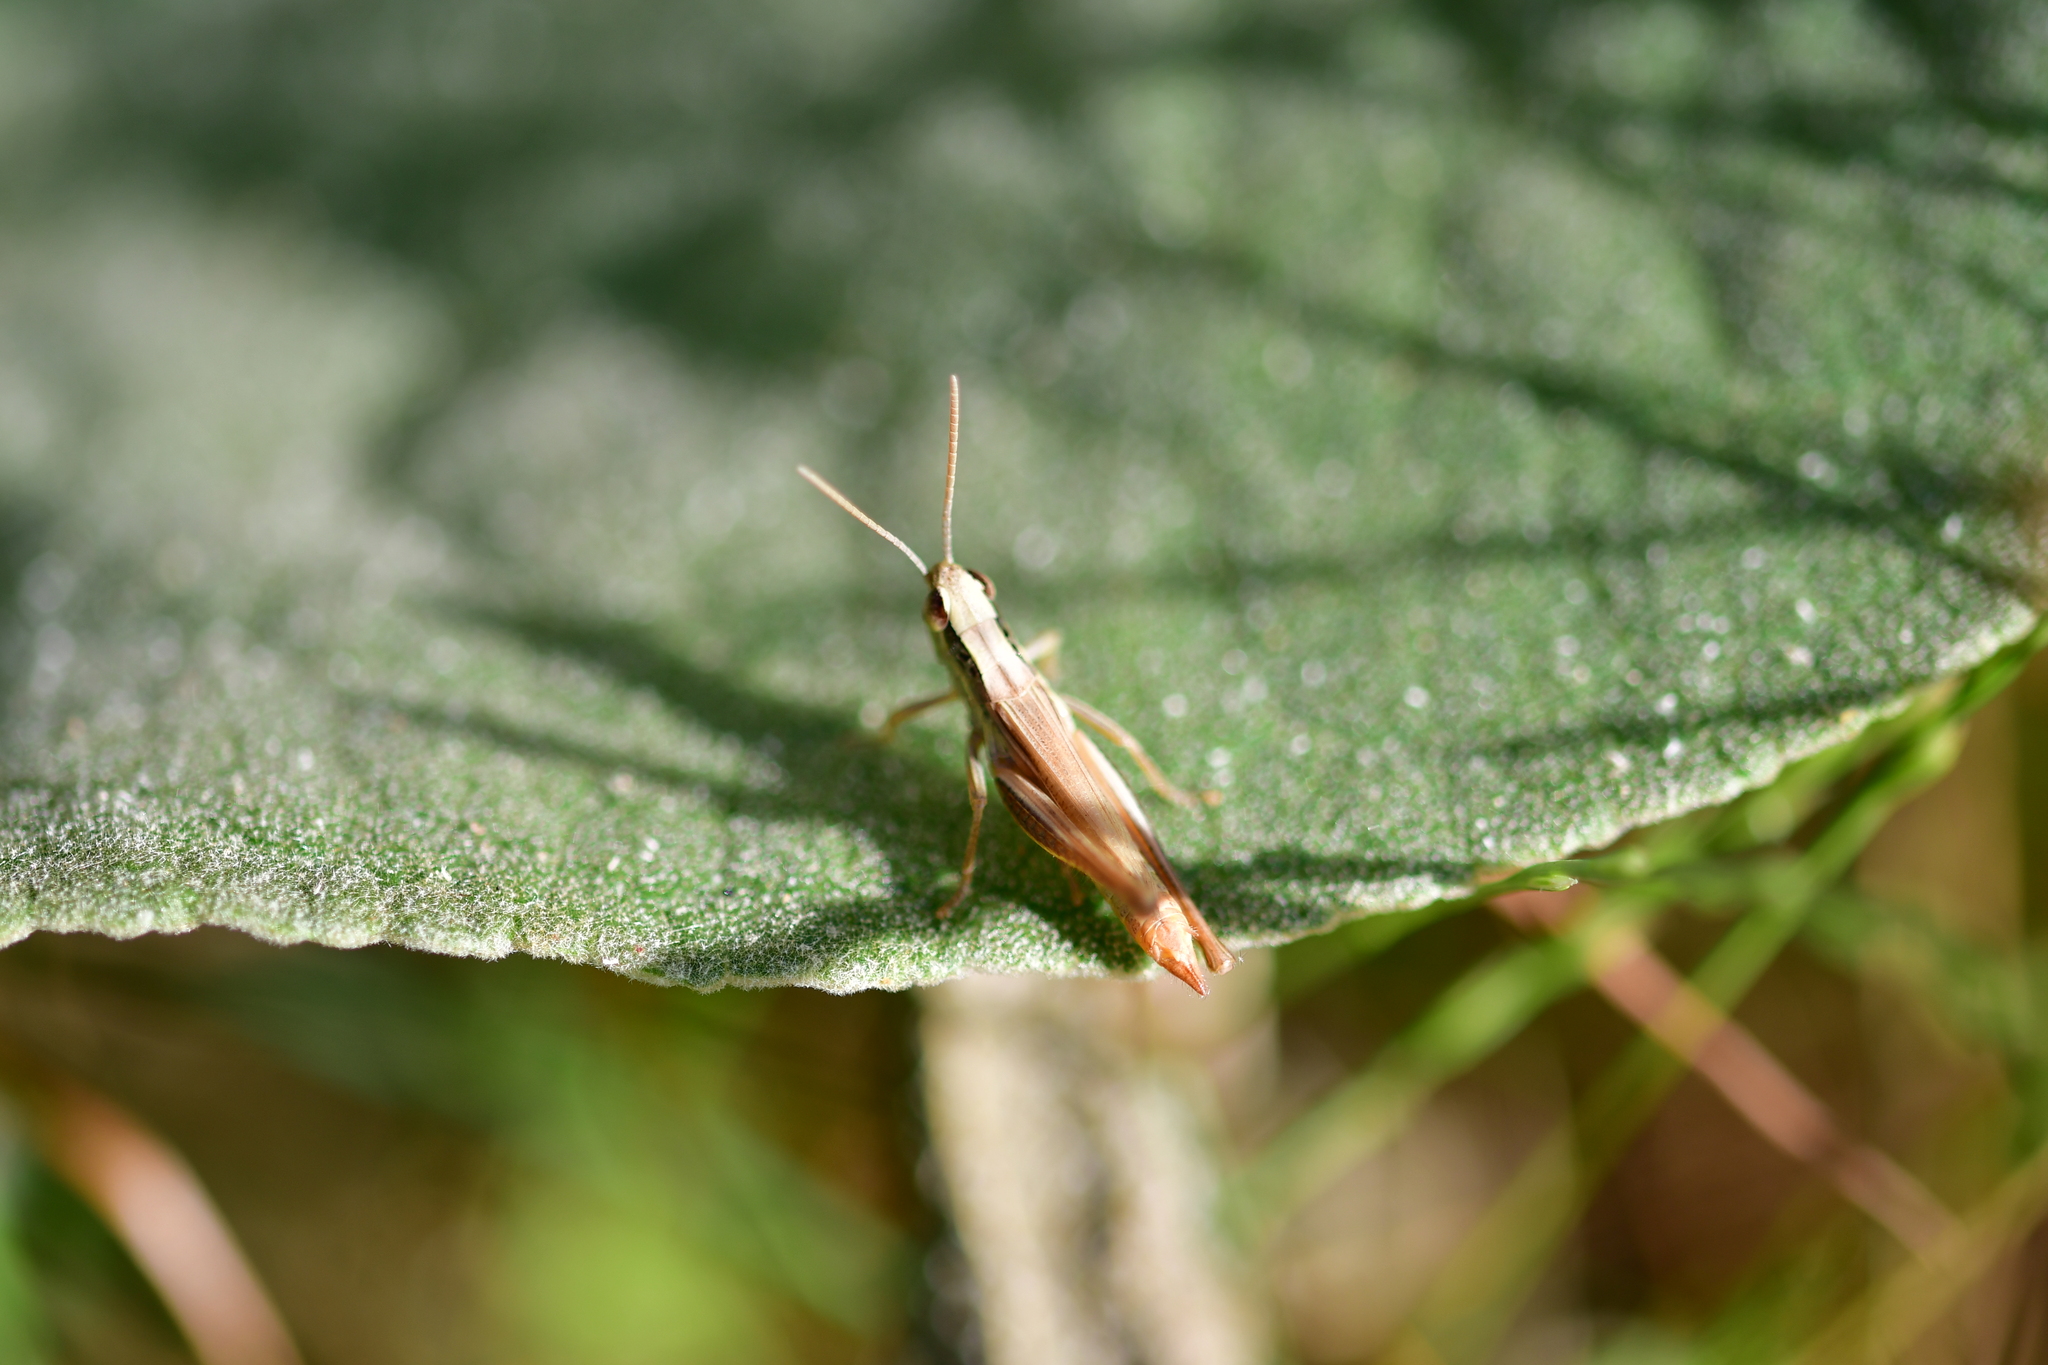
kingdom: Animalia
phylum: Arthropoda
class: Insecta
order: Orthoptera
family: Acrididae
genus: Euchorthippus
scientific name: Euchorthippus declivus
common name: Common straw grasshopper
